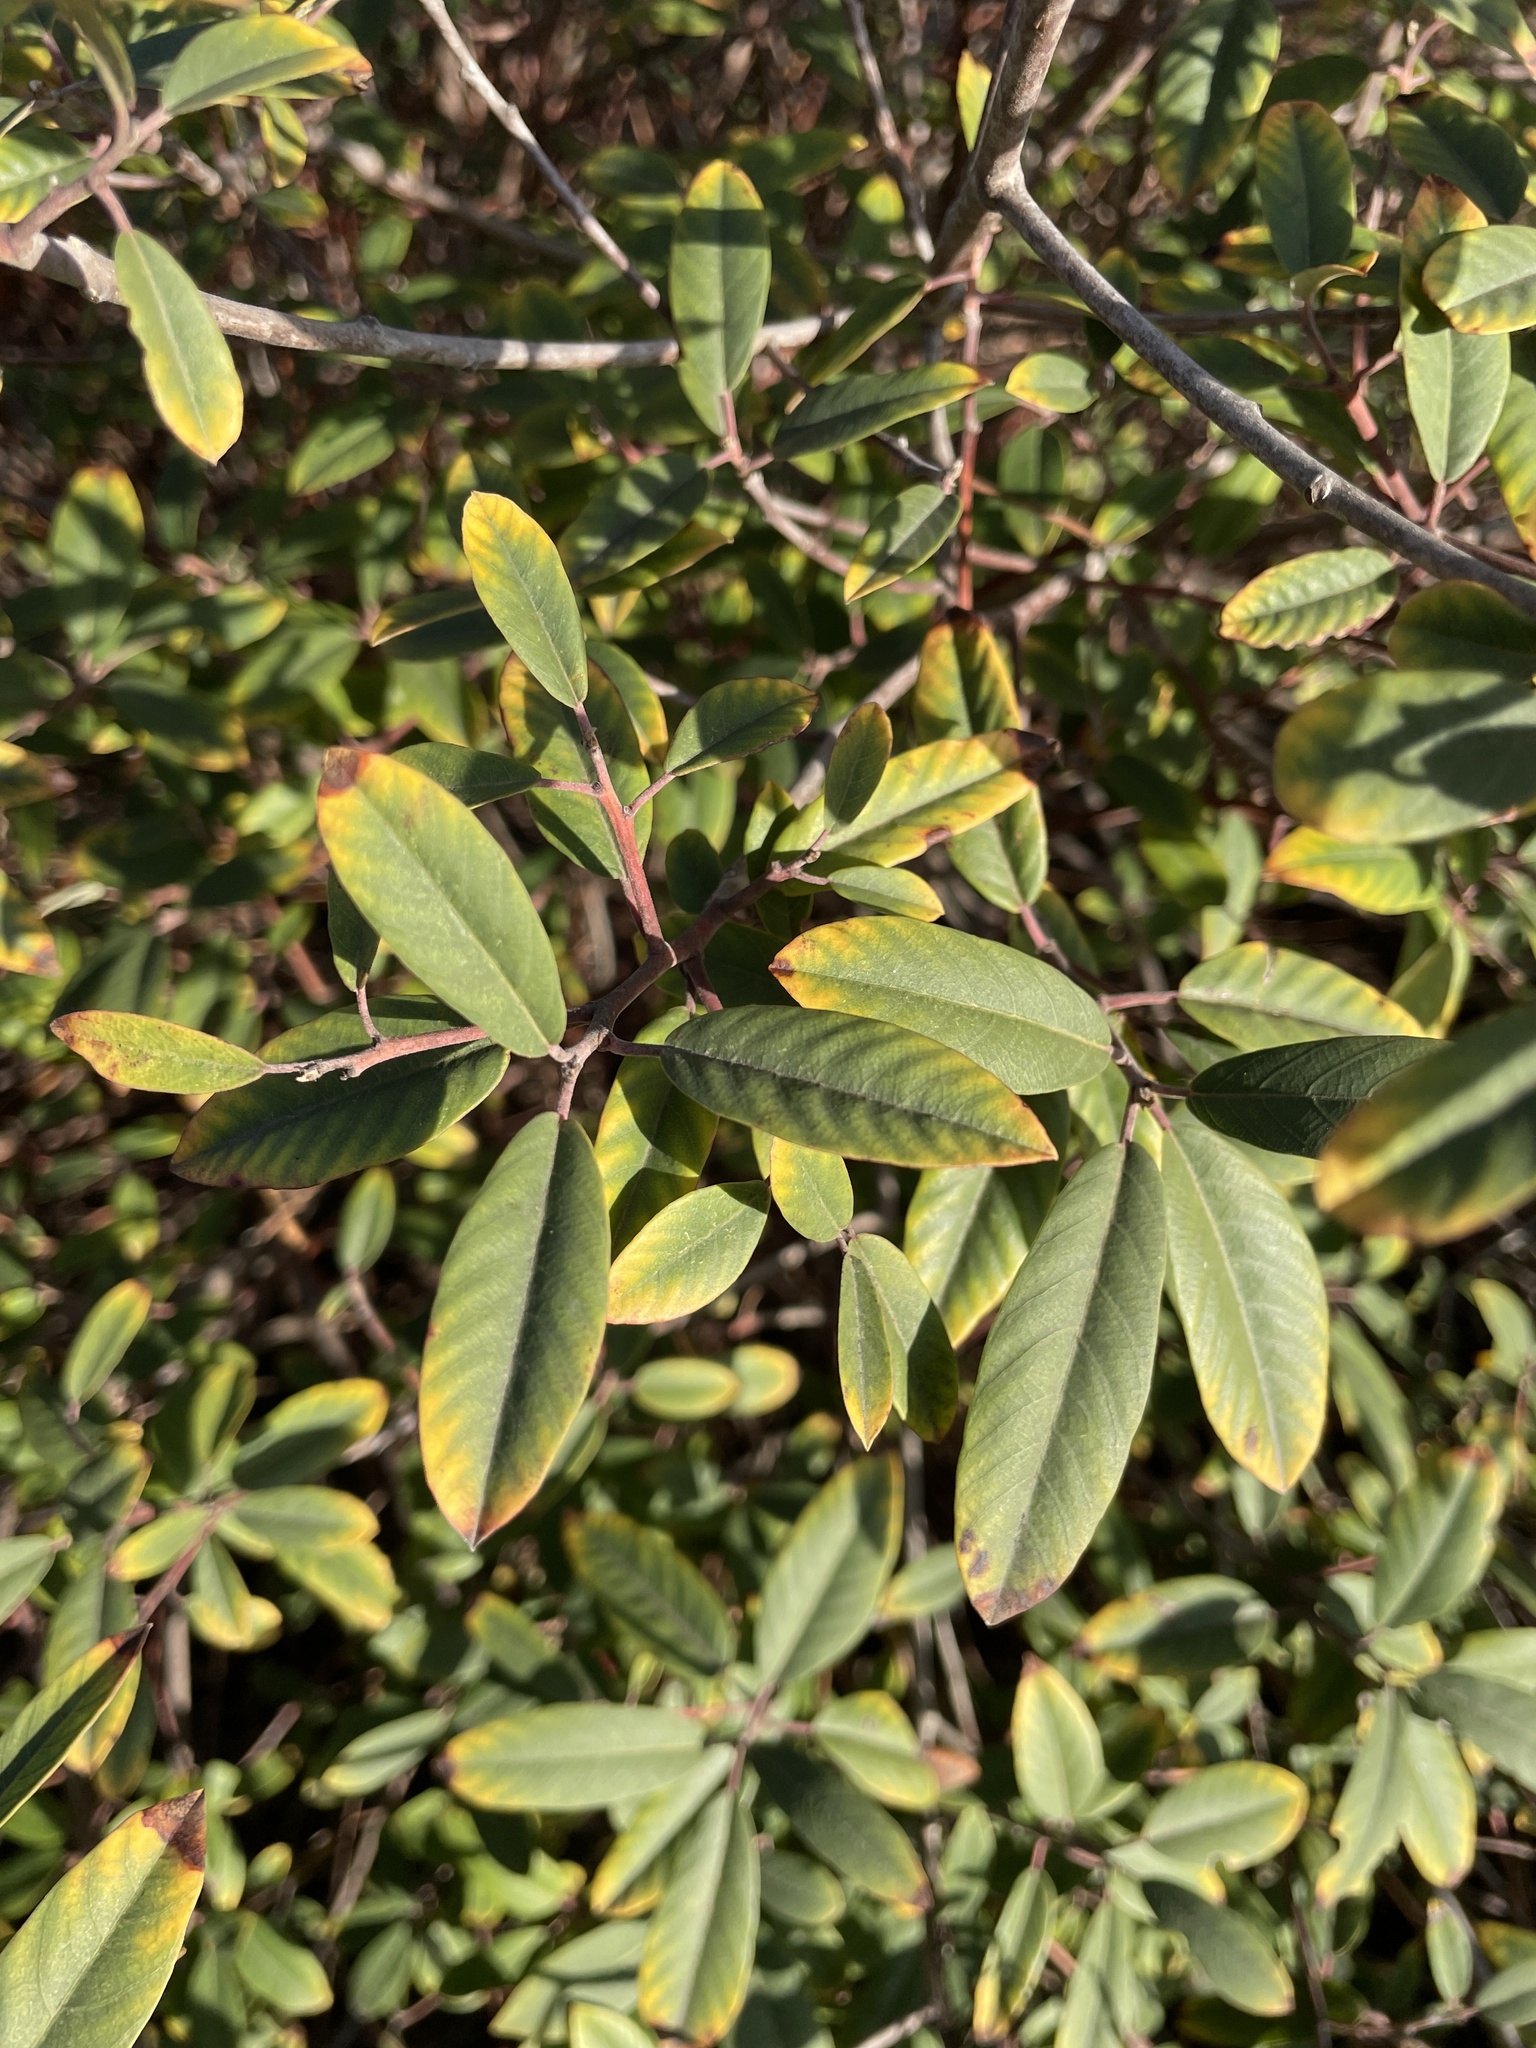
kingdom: Plantae
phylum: Tracheophyta
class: Magnoliopsida
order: Rosales
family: Rhamnaceae
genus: Frangula
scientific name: Frangula californica
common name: California buckthorn
